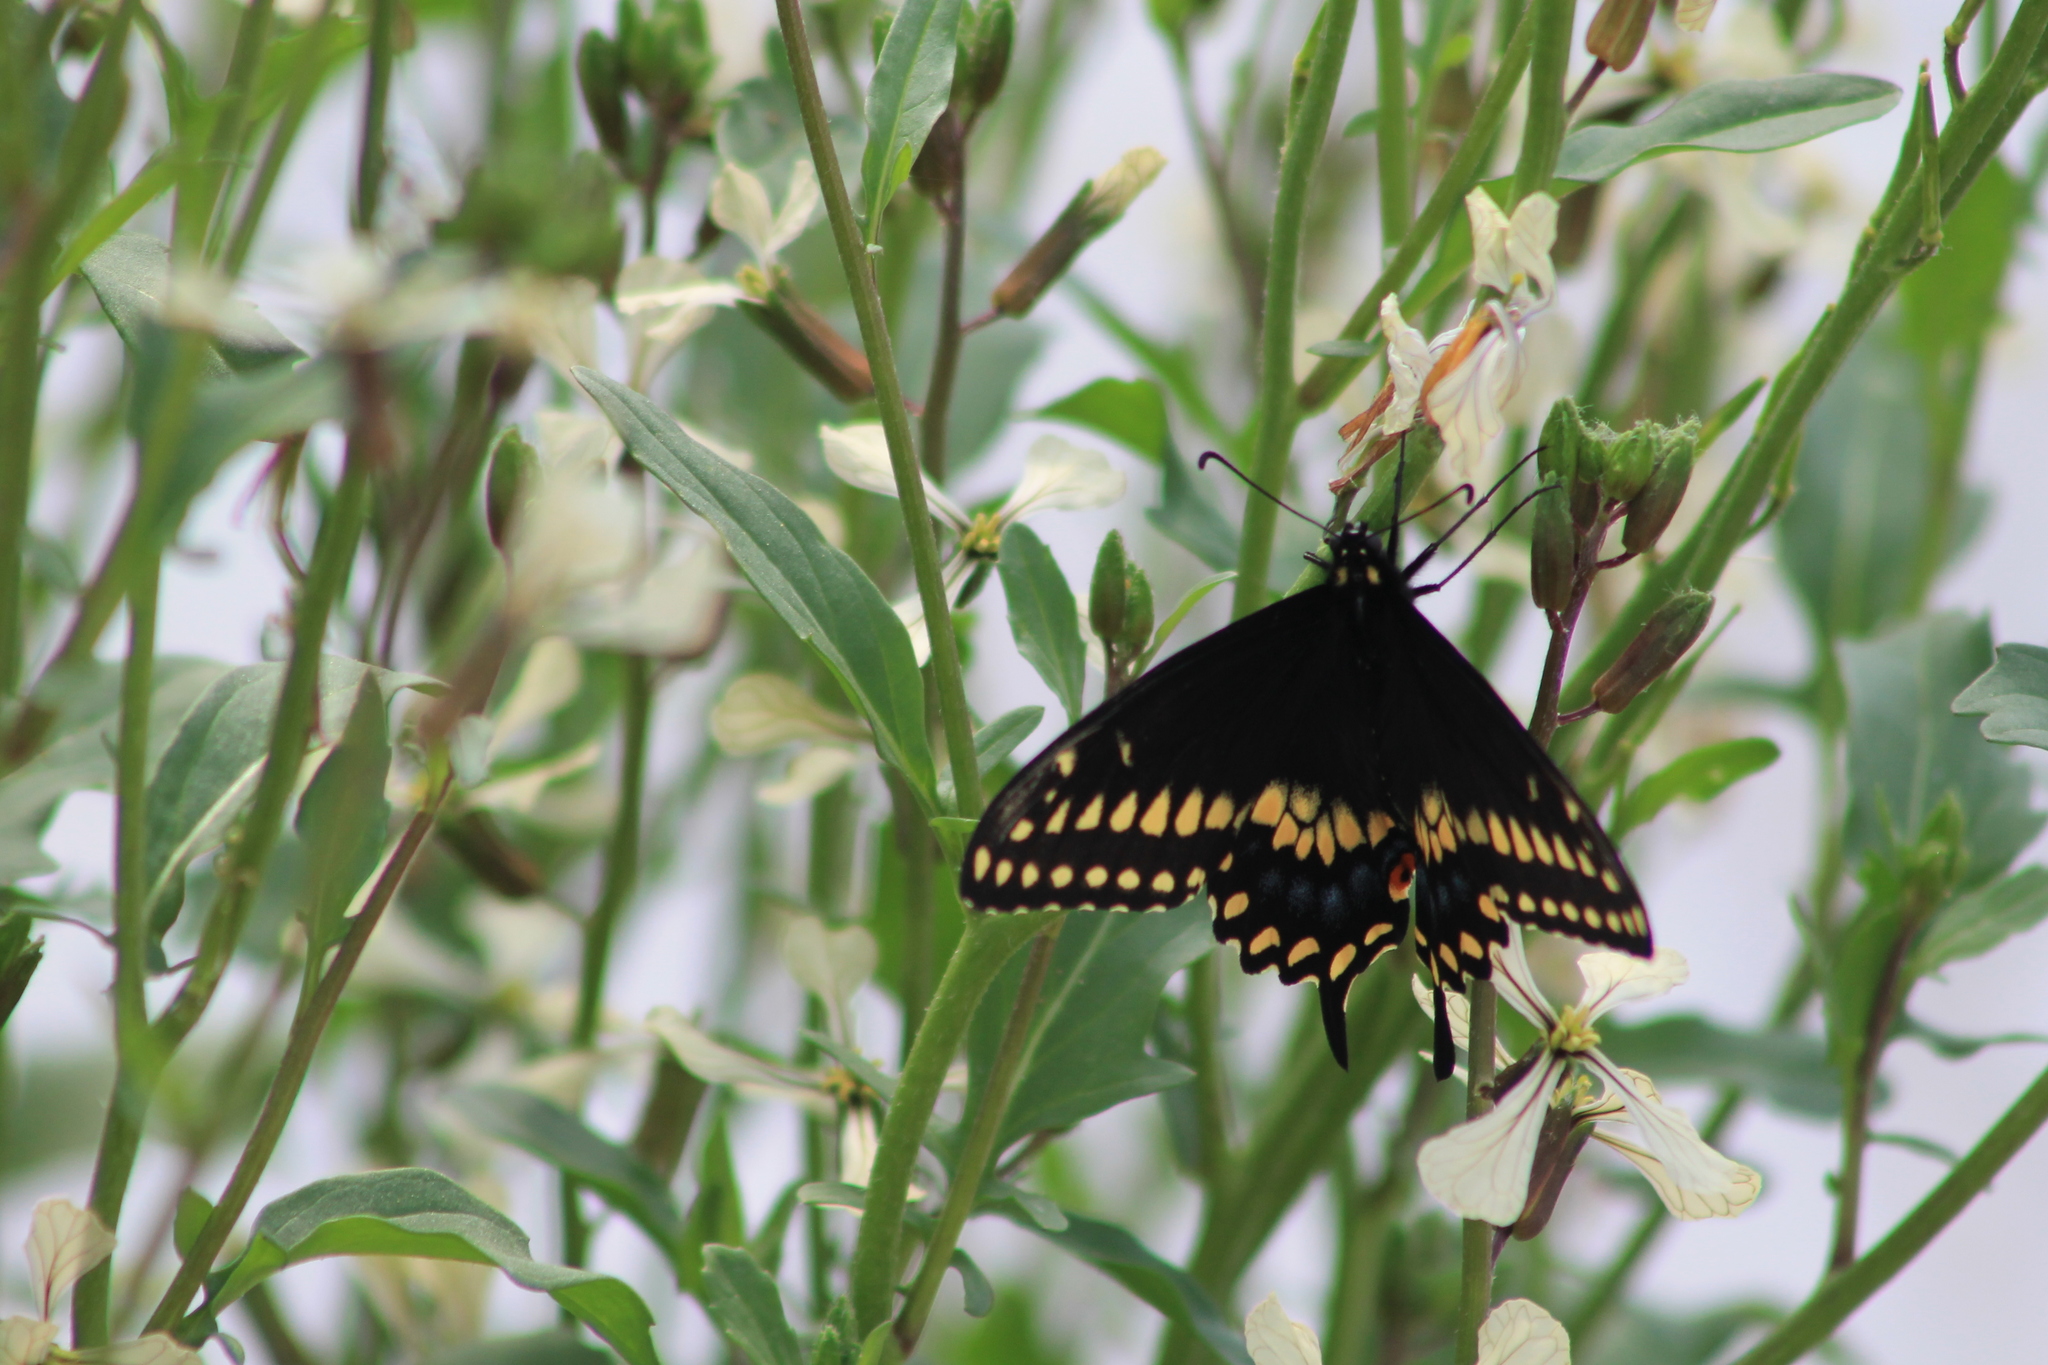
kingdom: Animalia
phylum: Arthropoda
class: Insecta
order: Lepidoptera
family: Papilionidae
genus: Papilio
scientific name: Papilio polyxenes
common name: Black swallowtail
